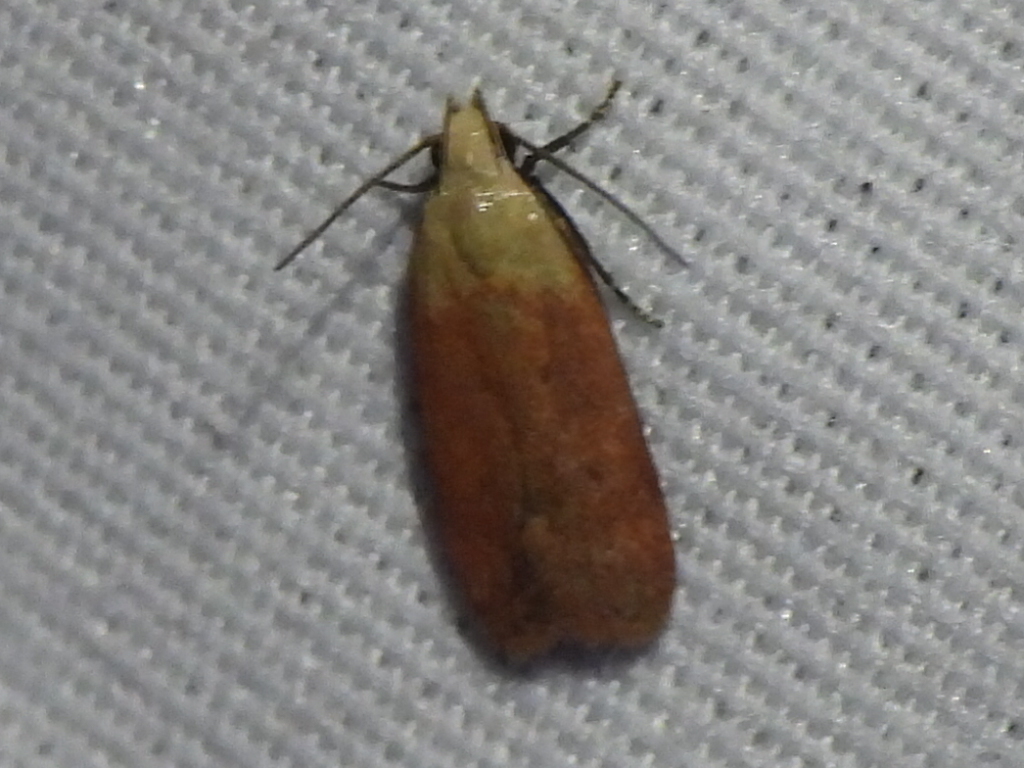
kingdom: Animalia
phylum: Arthropoda
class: Insecta
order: Lepidoptera
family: Gelechiidae
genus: Anacampsis
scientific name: Anacampsis fullonella
